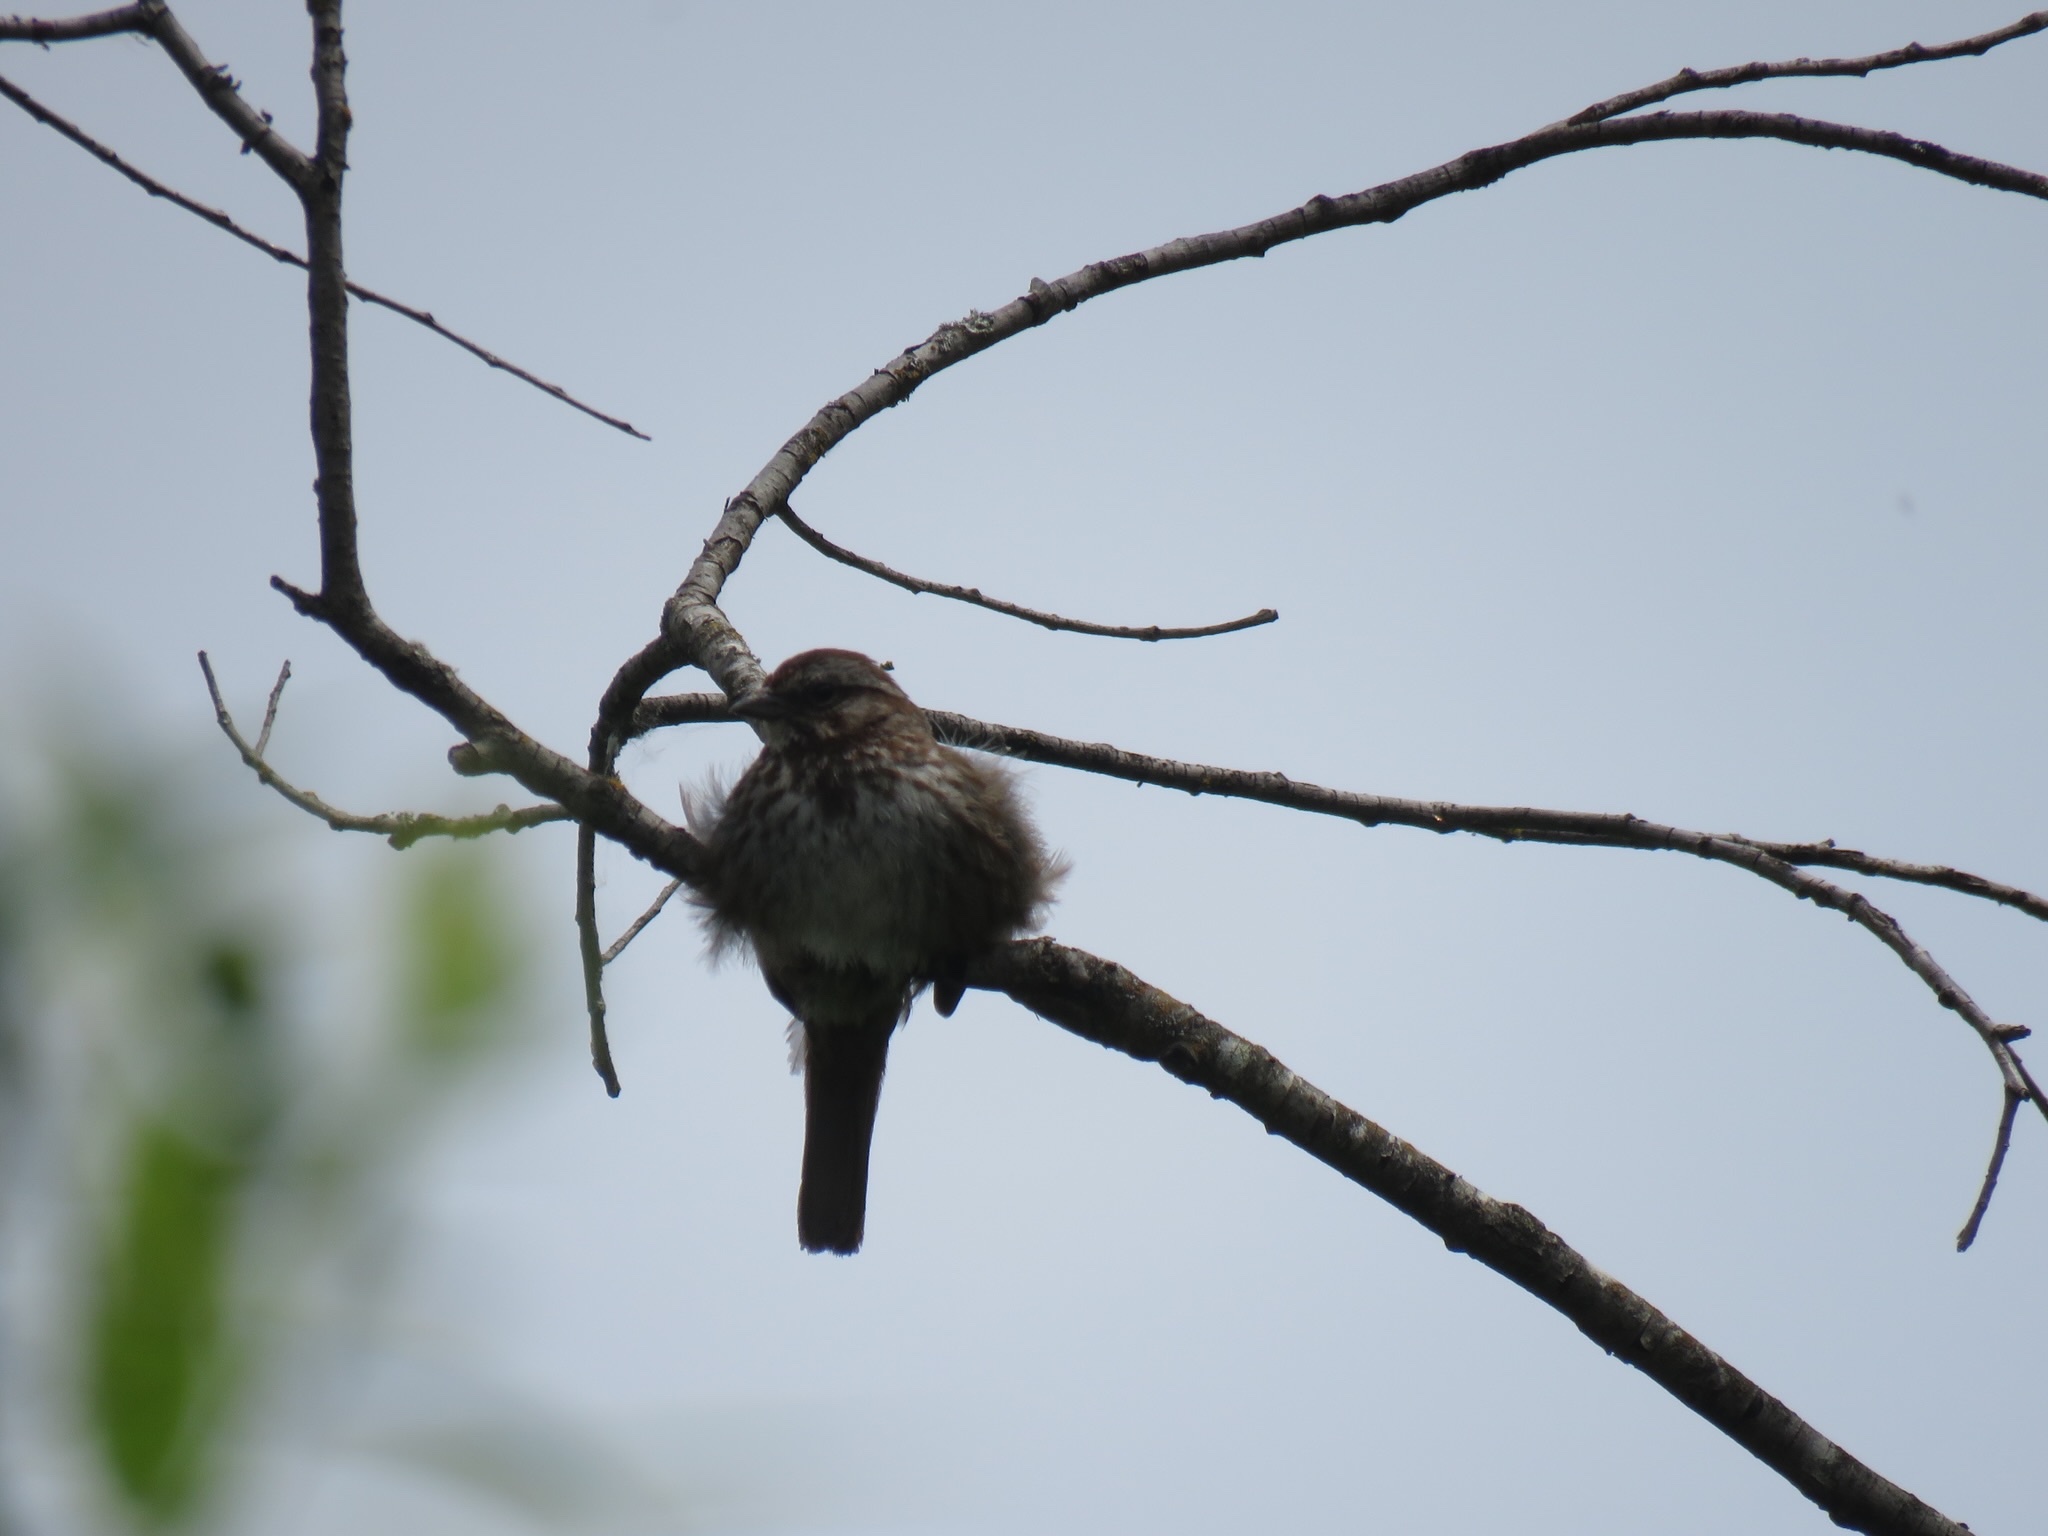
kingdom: Animalia
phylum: Chordata
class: Aves
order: Passeriformes
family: Passerellidae
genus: Melospiza
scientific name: Melospiza melodia
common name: Song sparrow
